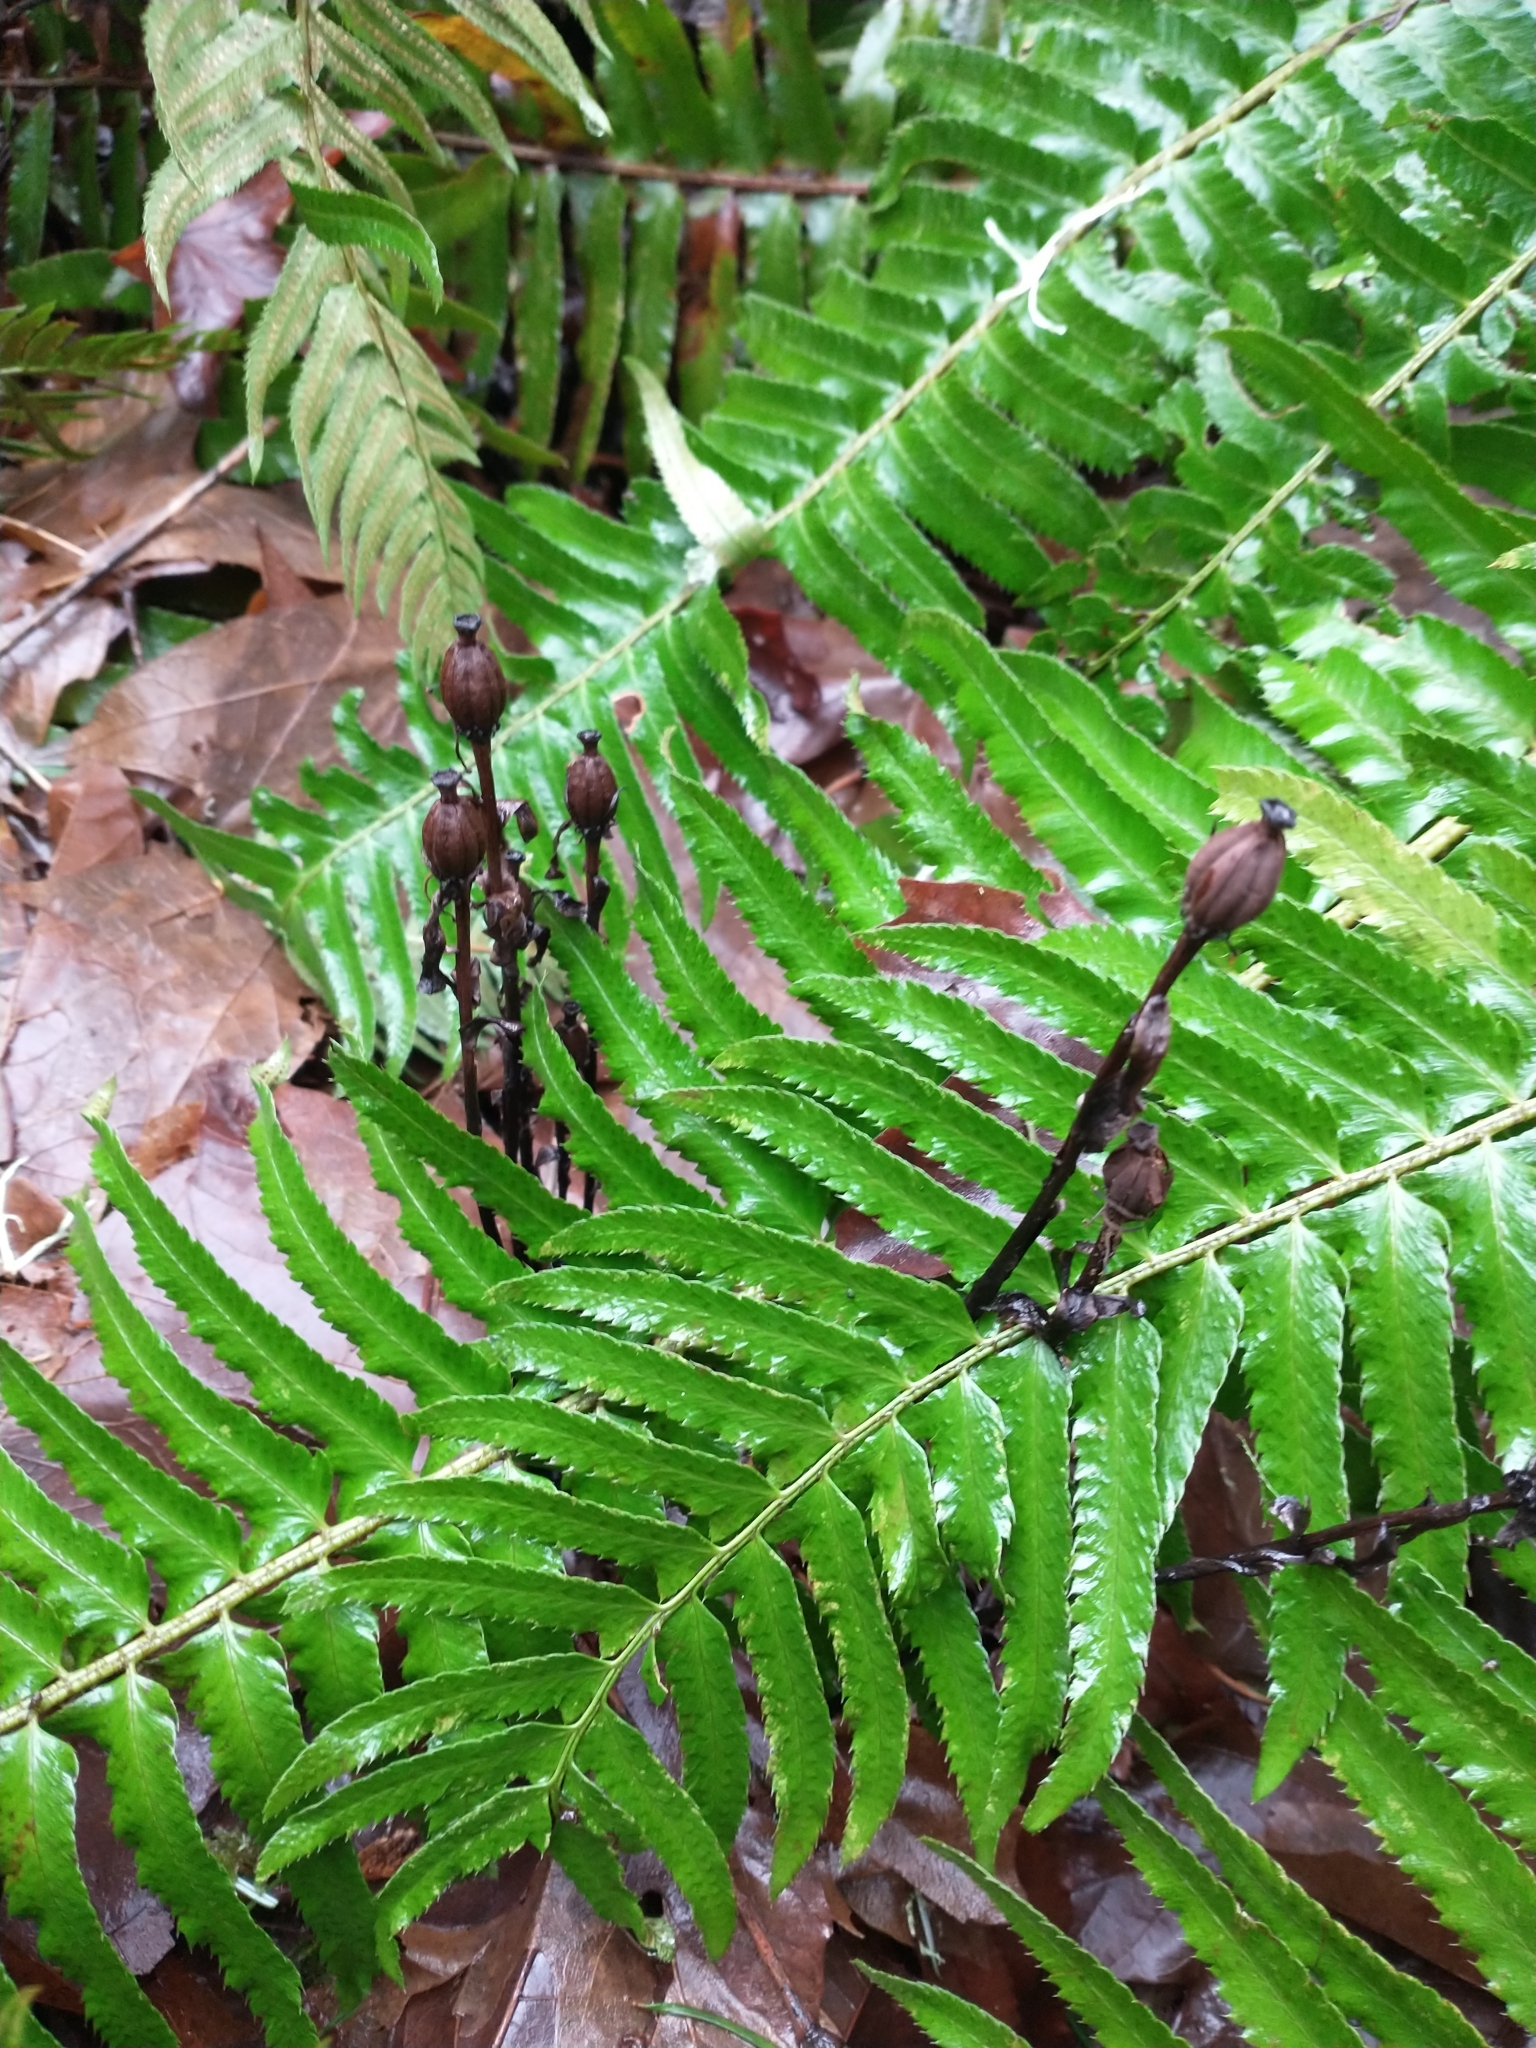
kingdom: Plantae
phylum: Tracheophyta
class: Magnoliopsida
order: Ericales
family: Ericaceae
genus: Monotropa
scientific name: Monotropa uniflora
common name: Convulsion root
